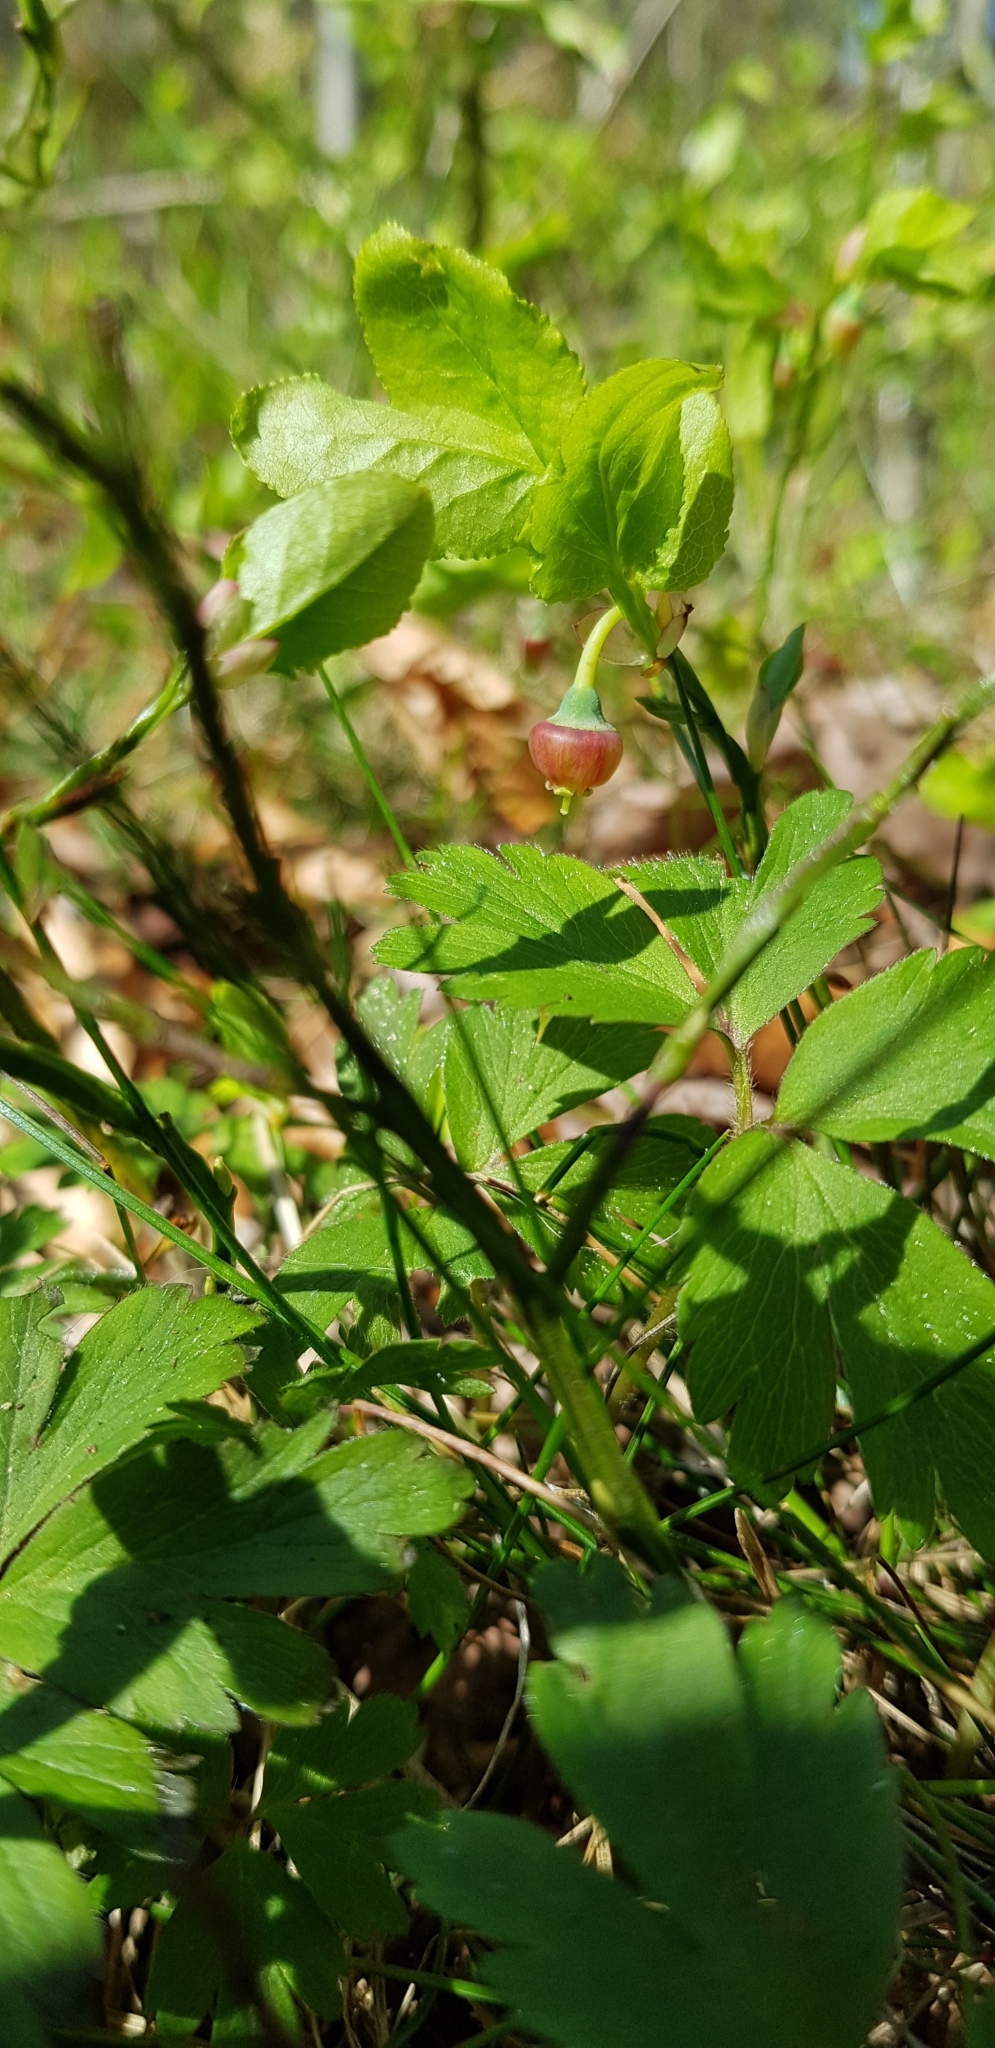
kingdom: Plantae
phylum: Tracheophyta
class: Magnoliopsida
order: Ericales
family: Ericaceae
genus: Vaccinium
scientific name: Vaccinium myrtillus
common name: Bilberry
